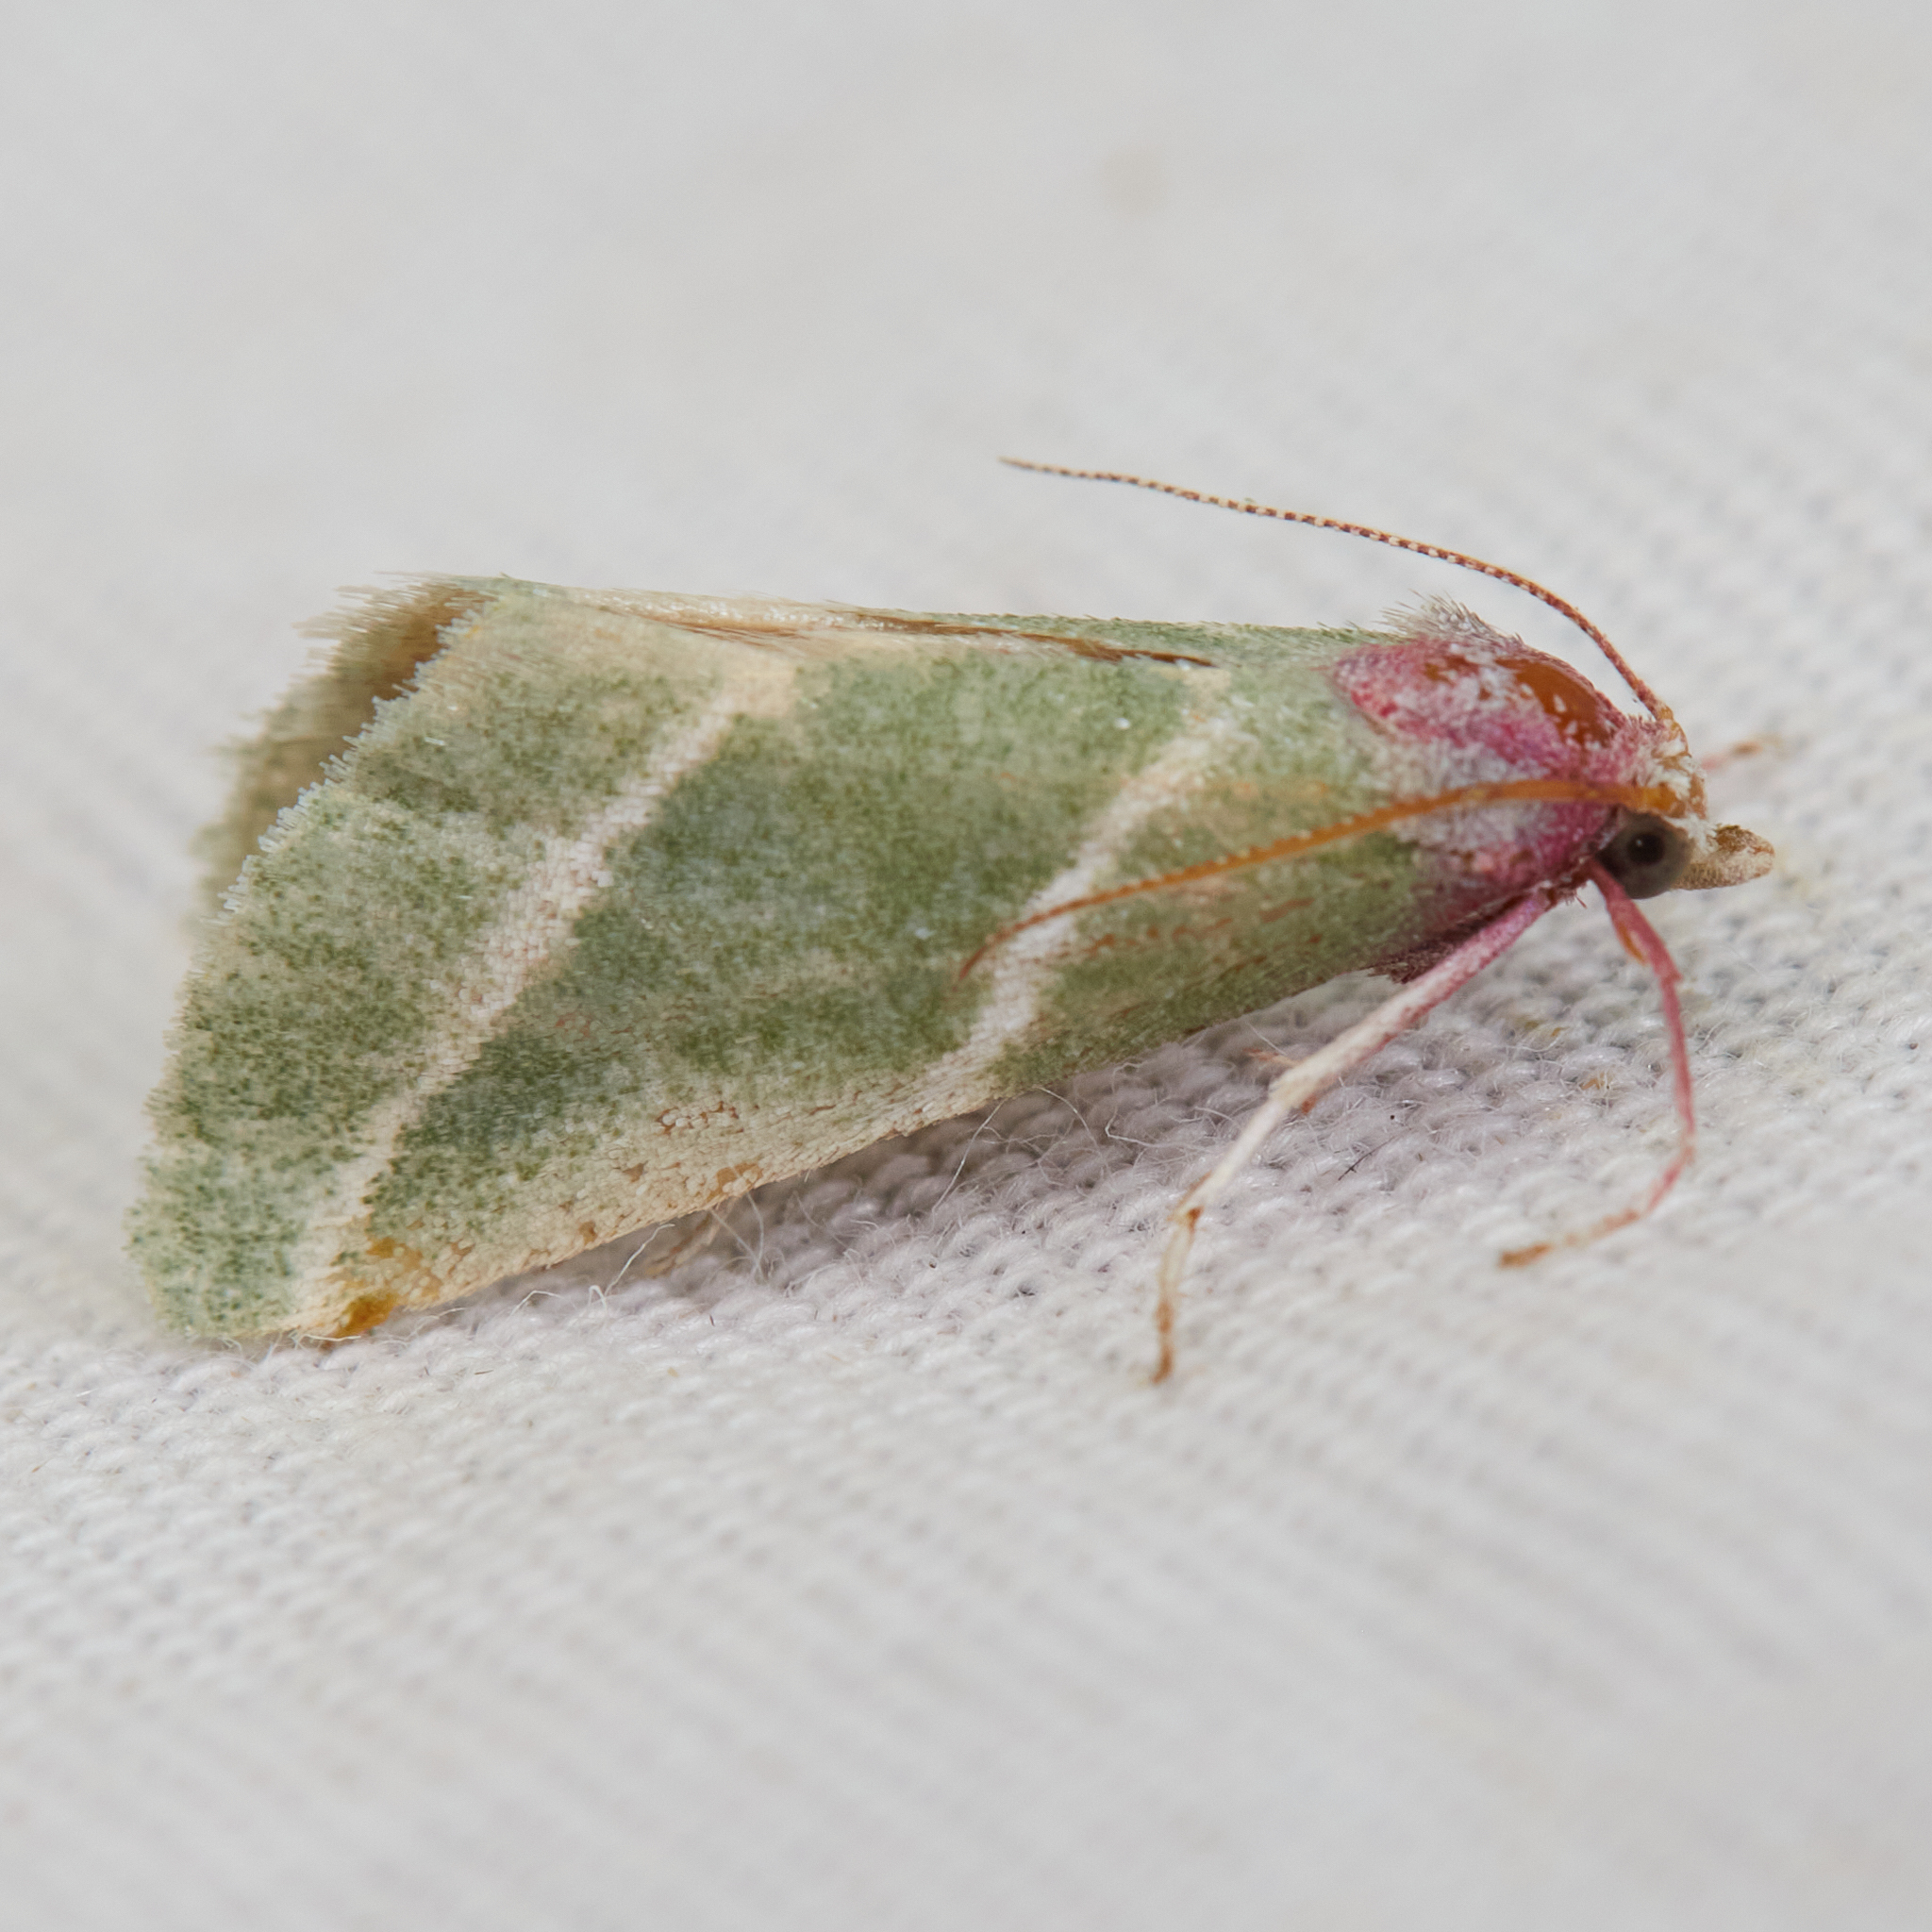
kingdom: Animalia
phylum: Arthropoda
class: Insecta
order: Lepidoptera
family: Pyralidae
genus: Anemosella
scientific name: Anemosella
